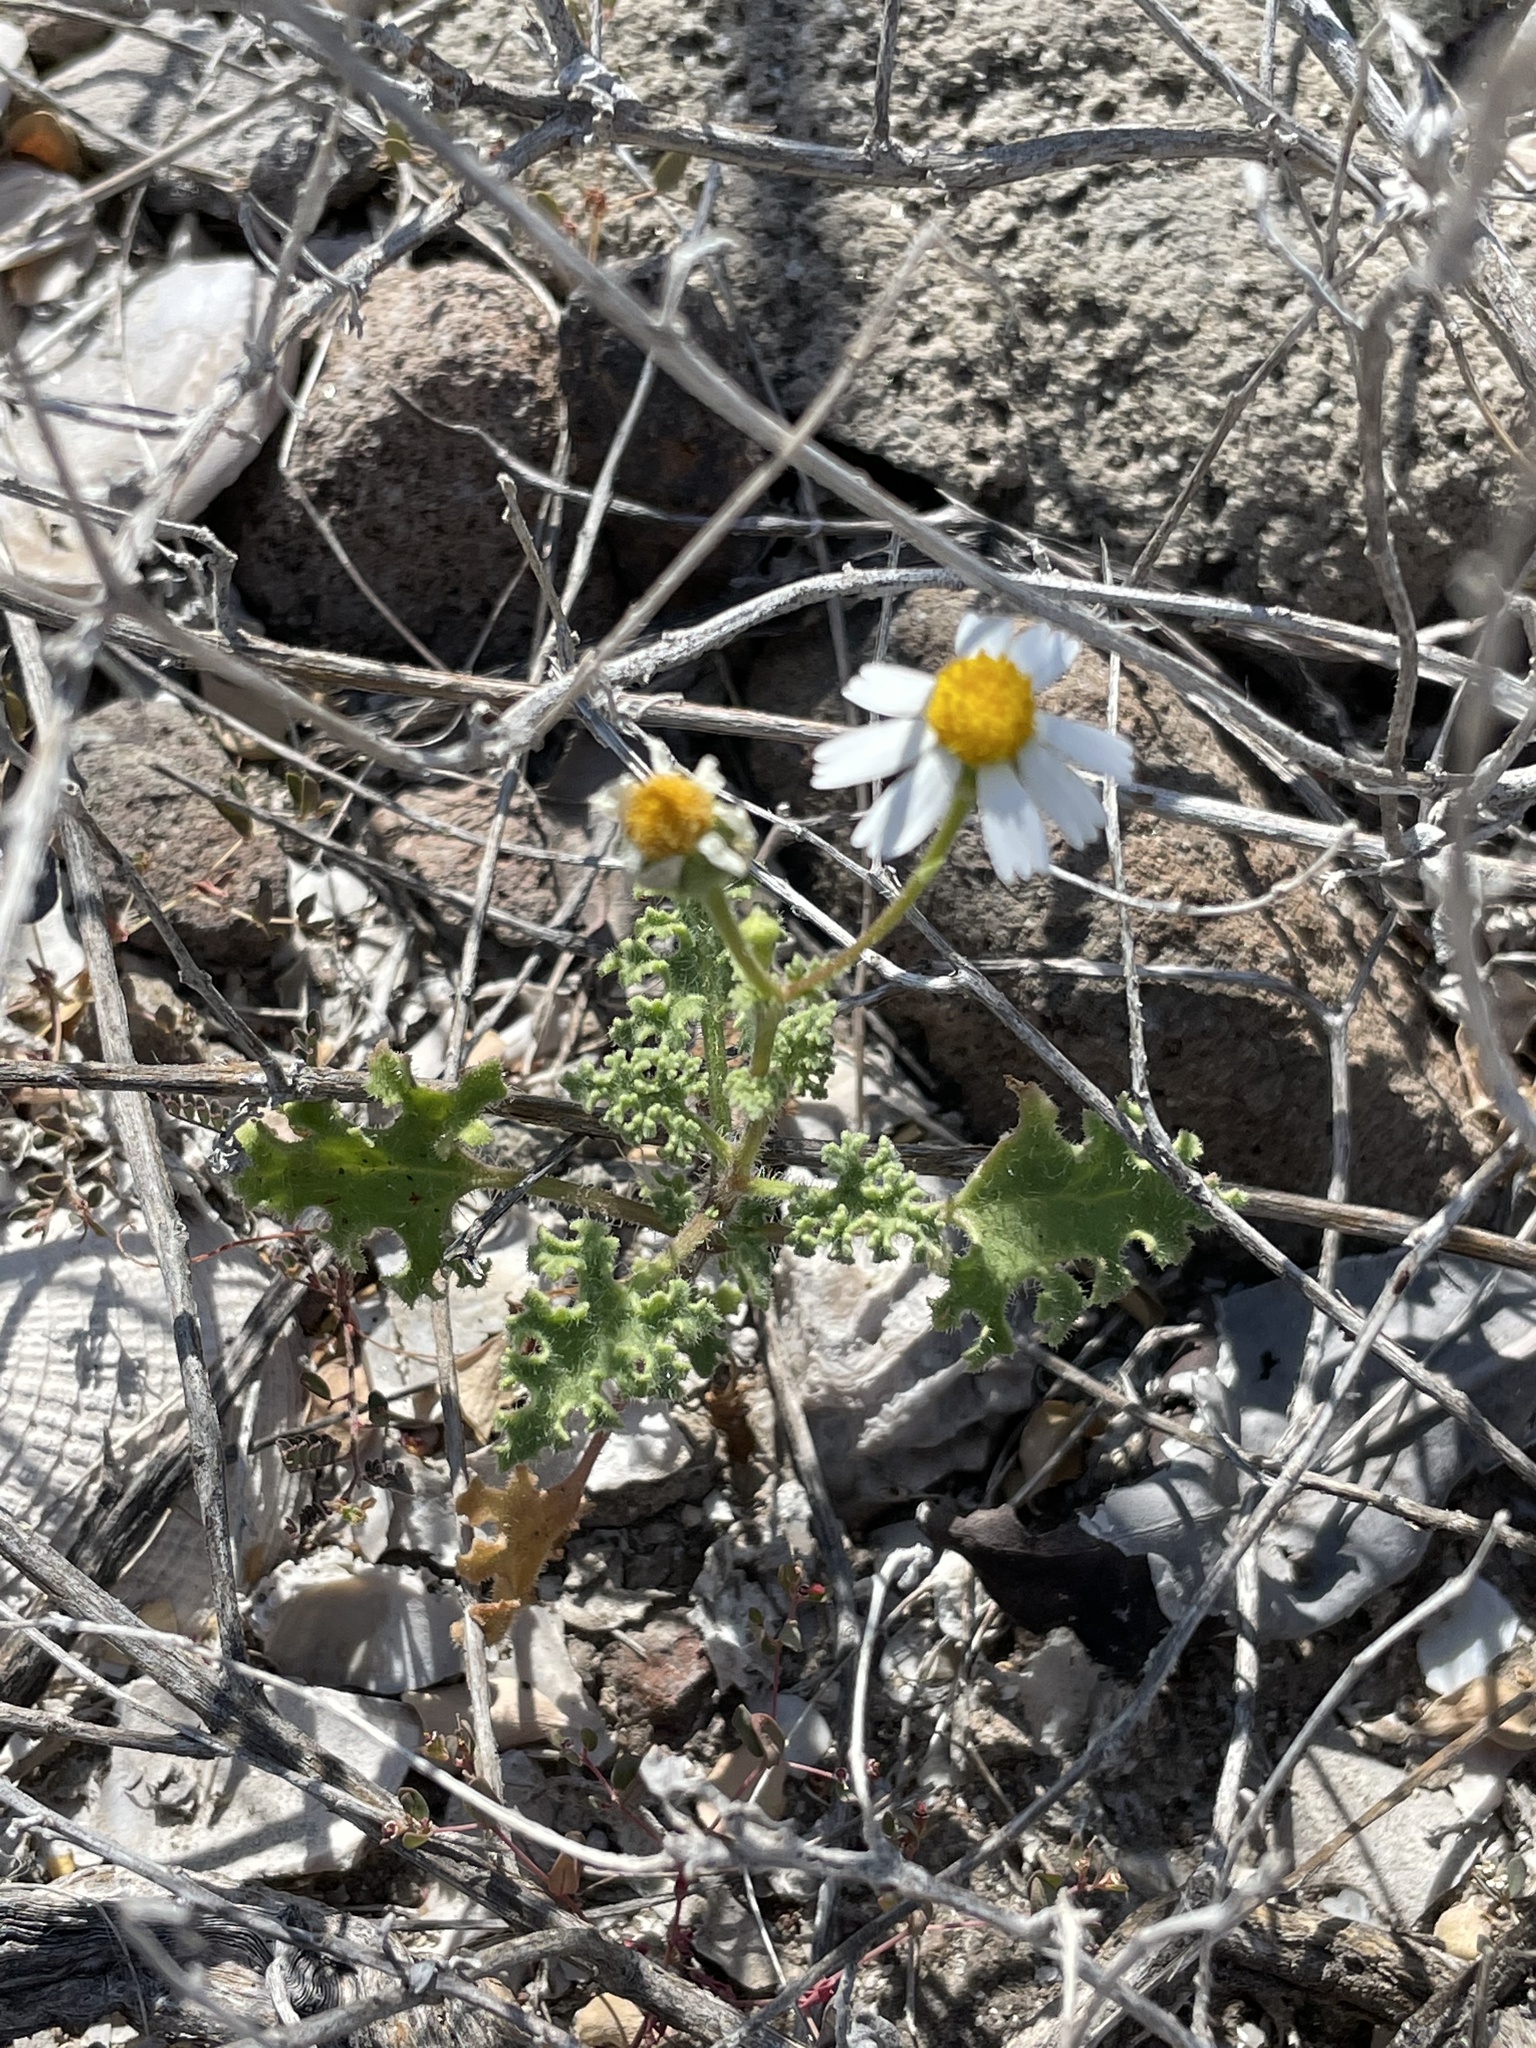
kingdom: Plantae
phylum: Tracheophyta
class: Magnoliopsida
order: Asterales
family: Asteraceae
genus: Perityle
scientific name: Perityle crassifolia
